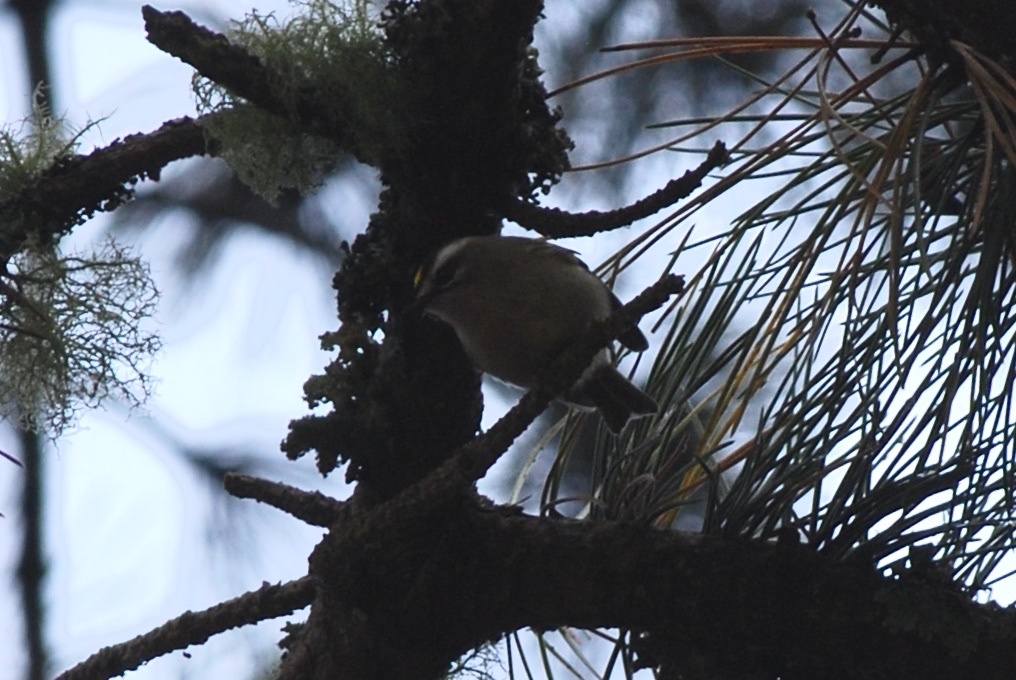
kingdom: Animalia
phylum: Chordata
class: Aves
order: Passeriformes
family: Regulidae
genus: Regulus
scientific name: Regulus satrapa
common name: Golden-crowned kinglet
